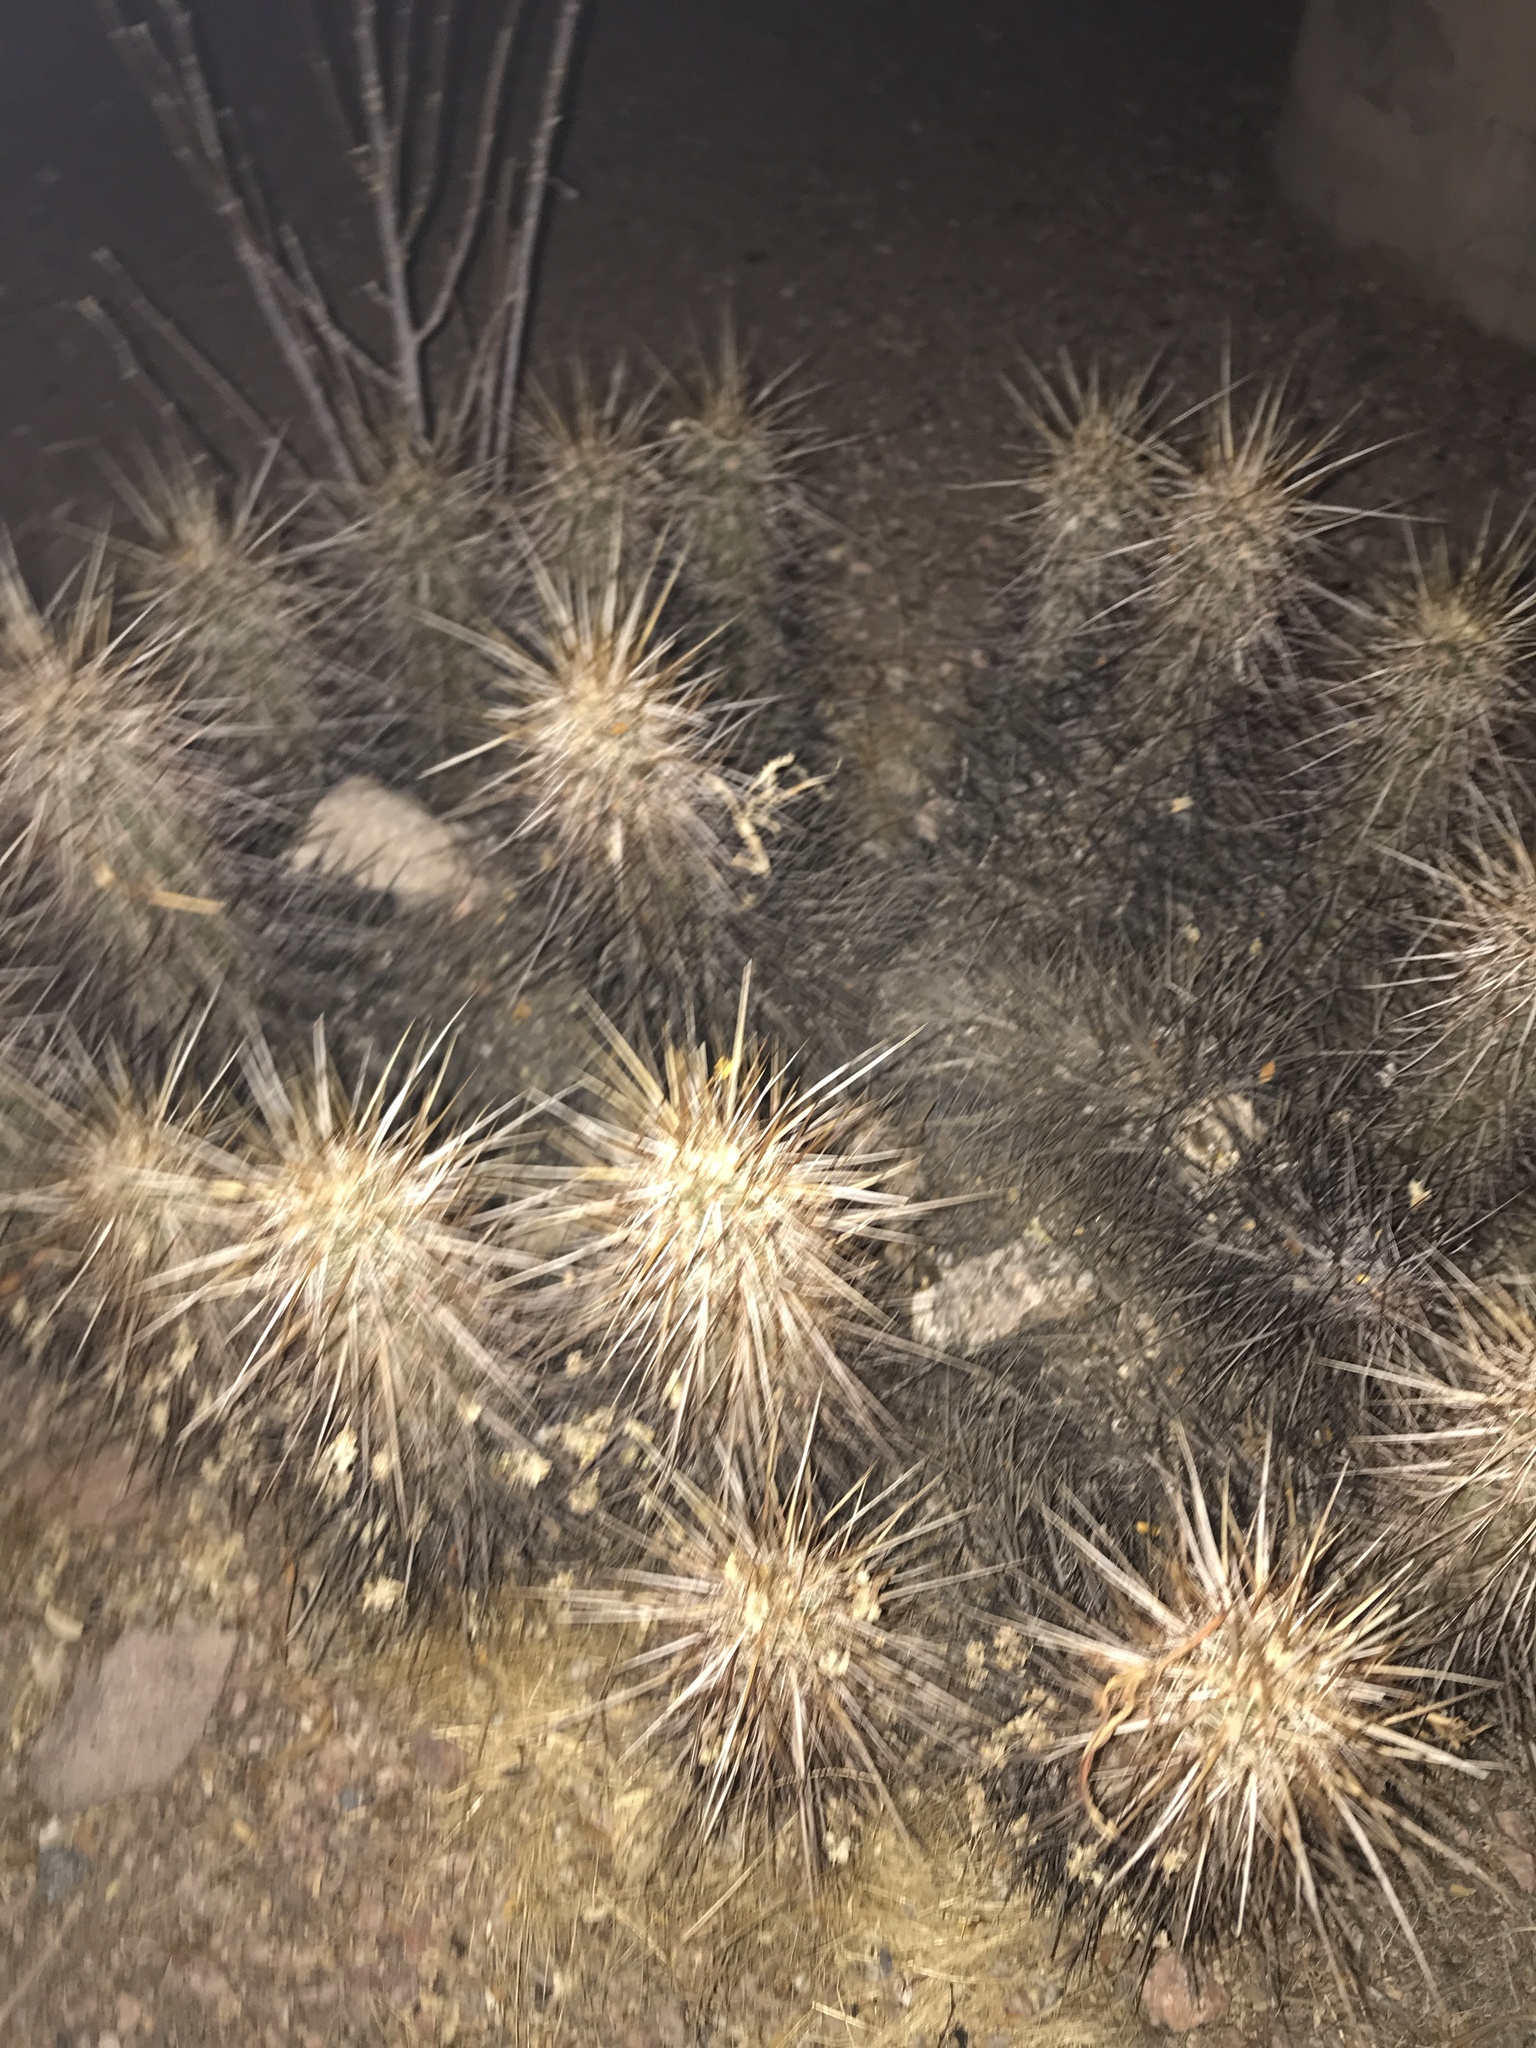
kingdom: Plantae
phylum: Tracheophyta
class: Magnoliopsida
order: Caryophyllales
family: Cactaceae
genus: Echinocereus
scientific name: Echinocereus engelmannii
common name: Engelmann's hedgehog cactus
